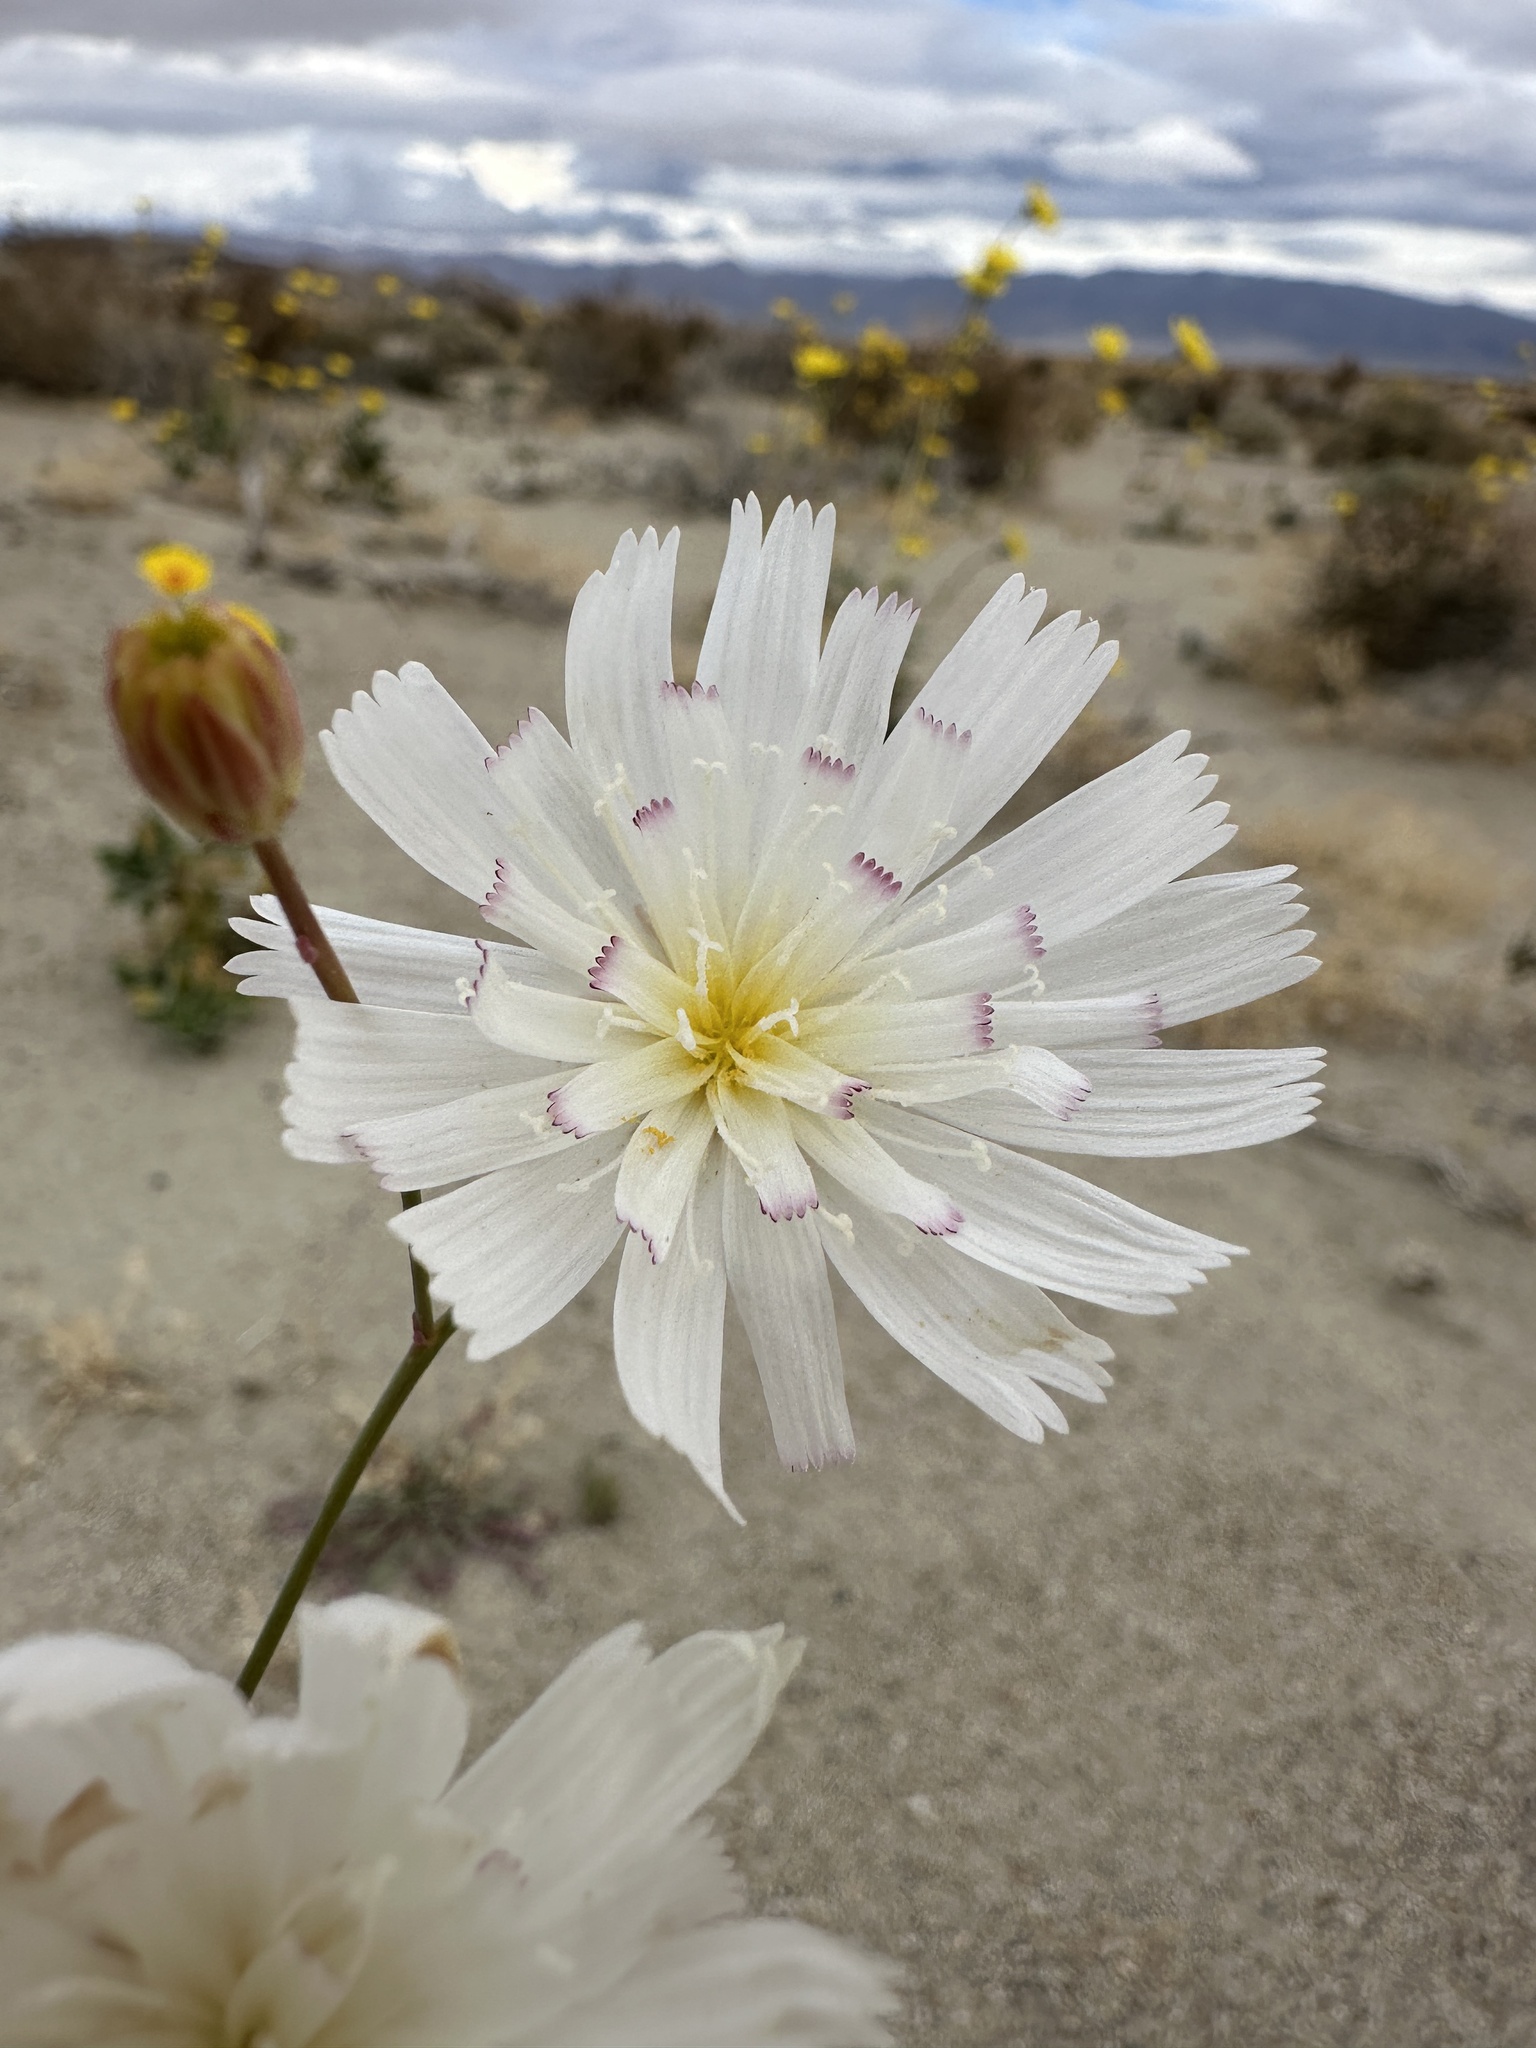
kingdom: Plantae
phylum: Tracheophyta
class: Magnoliopsida
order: Asterales
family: Asteraceae
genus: Atrichoseris
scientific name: Atrichoseris platyphylla
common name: Tobaccoweed
